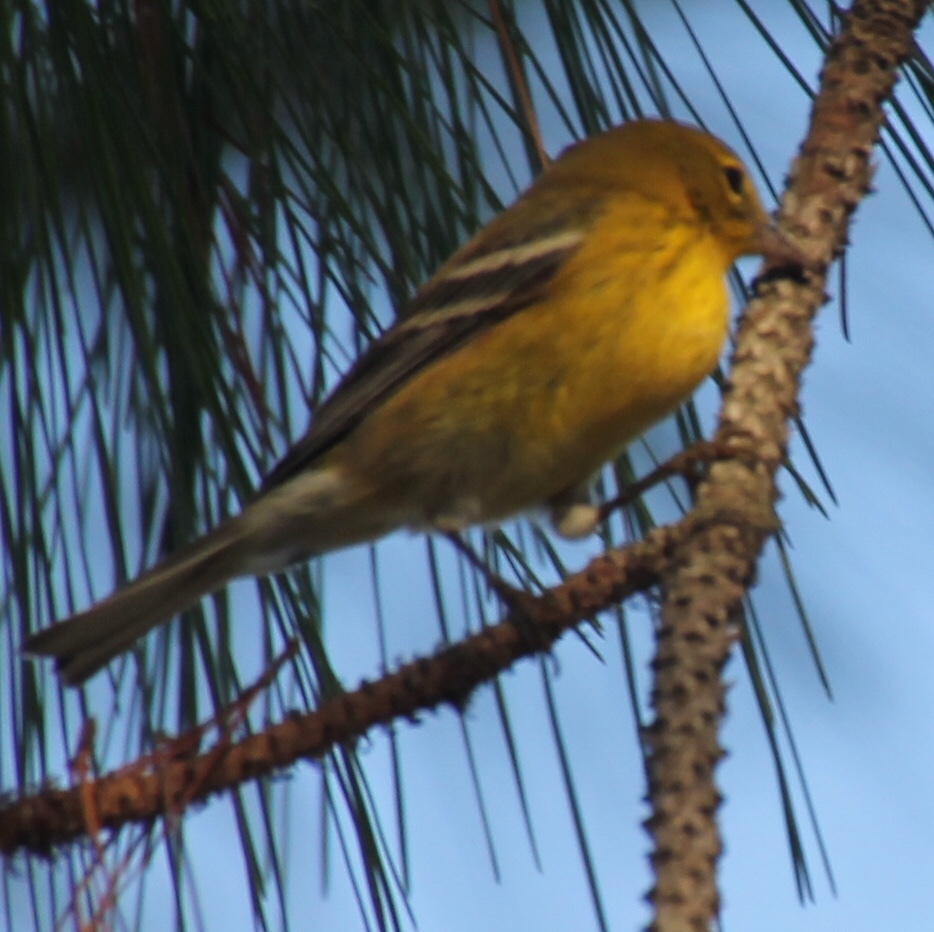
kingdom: Animalia
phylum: Chordata
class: Aves
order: Passeriformes
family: Parulidae
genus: Setophaga
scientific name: Setophaga pinus
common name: Pine warbler
